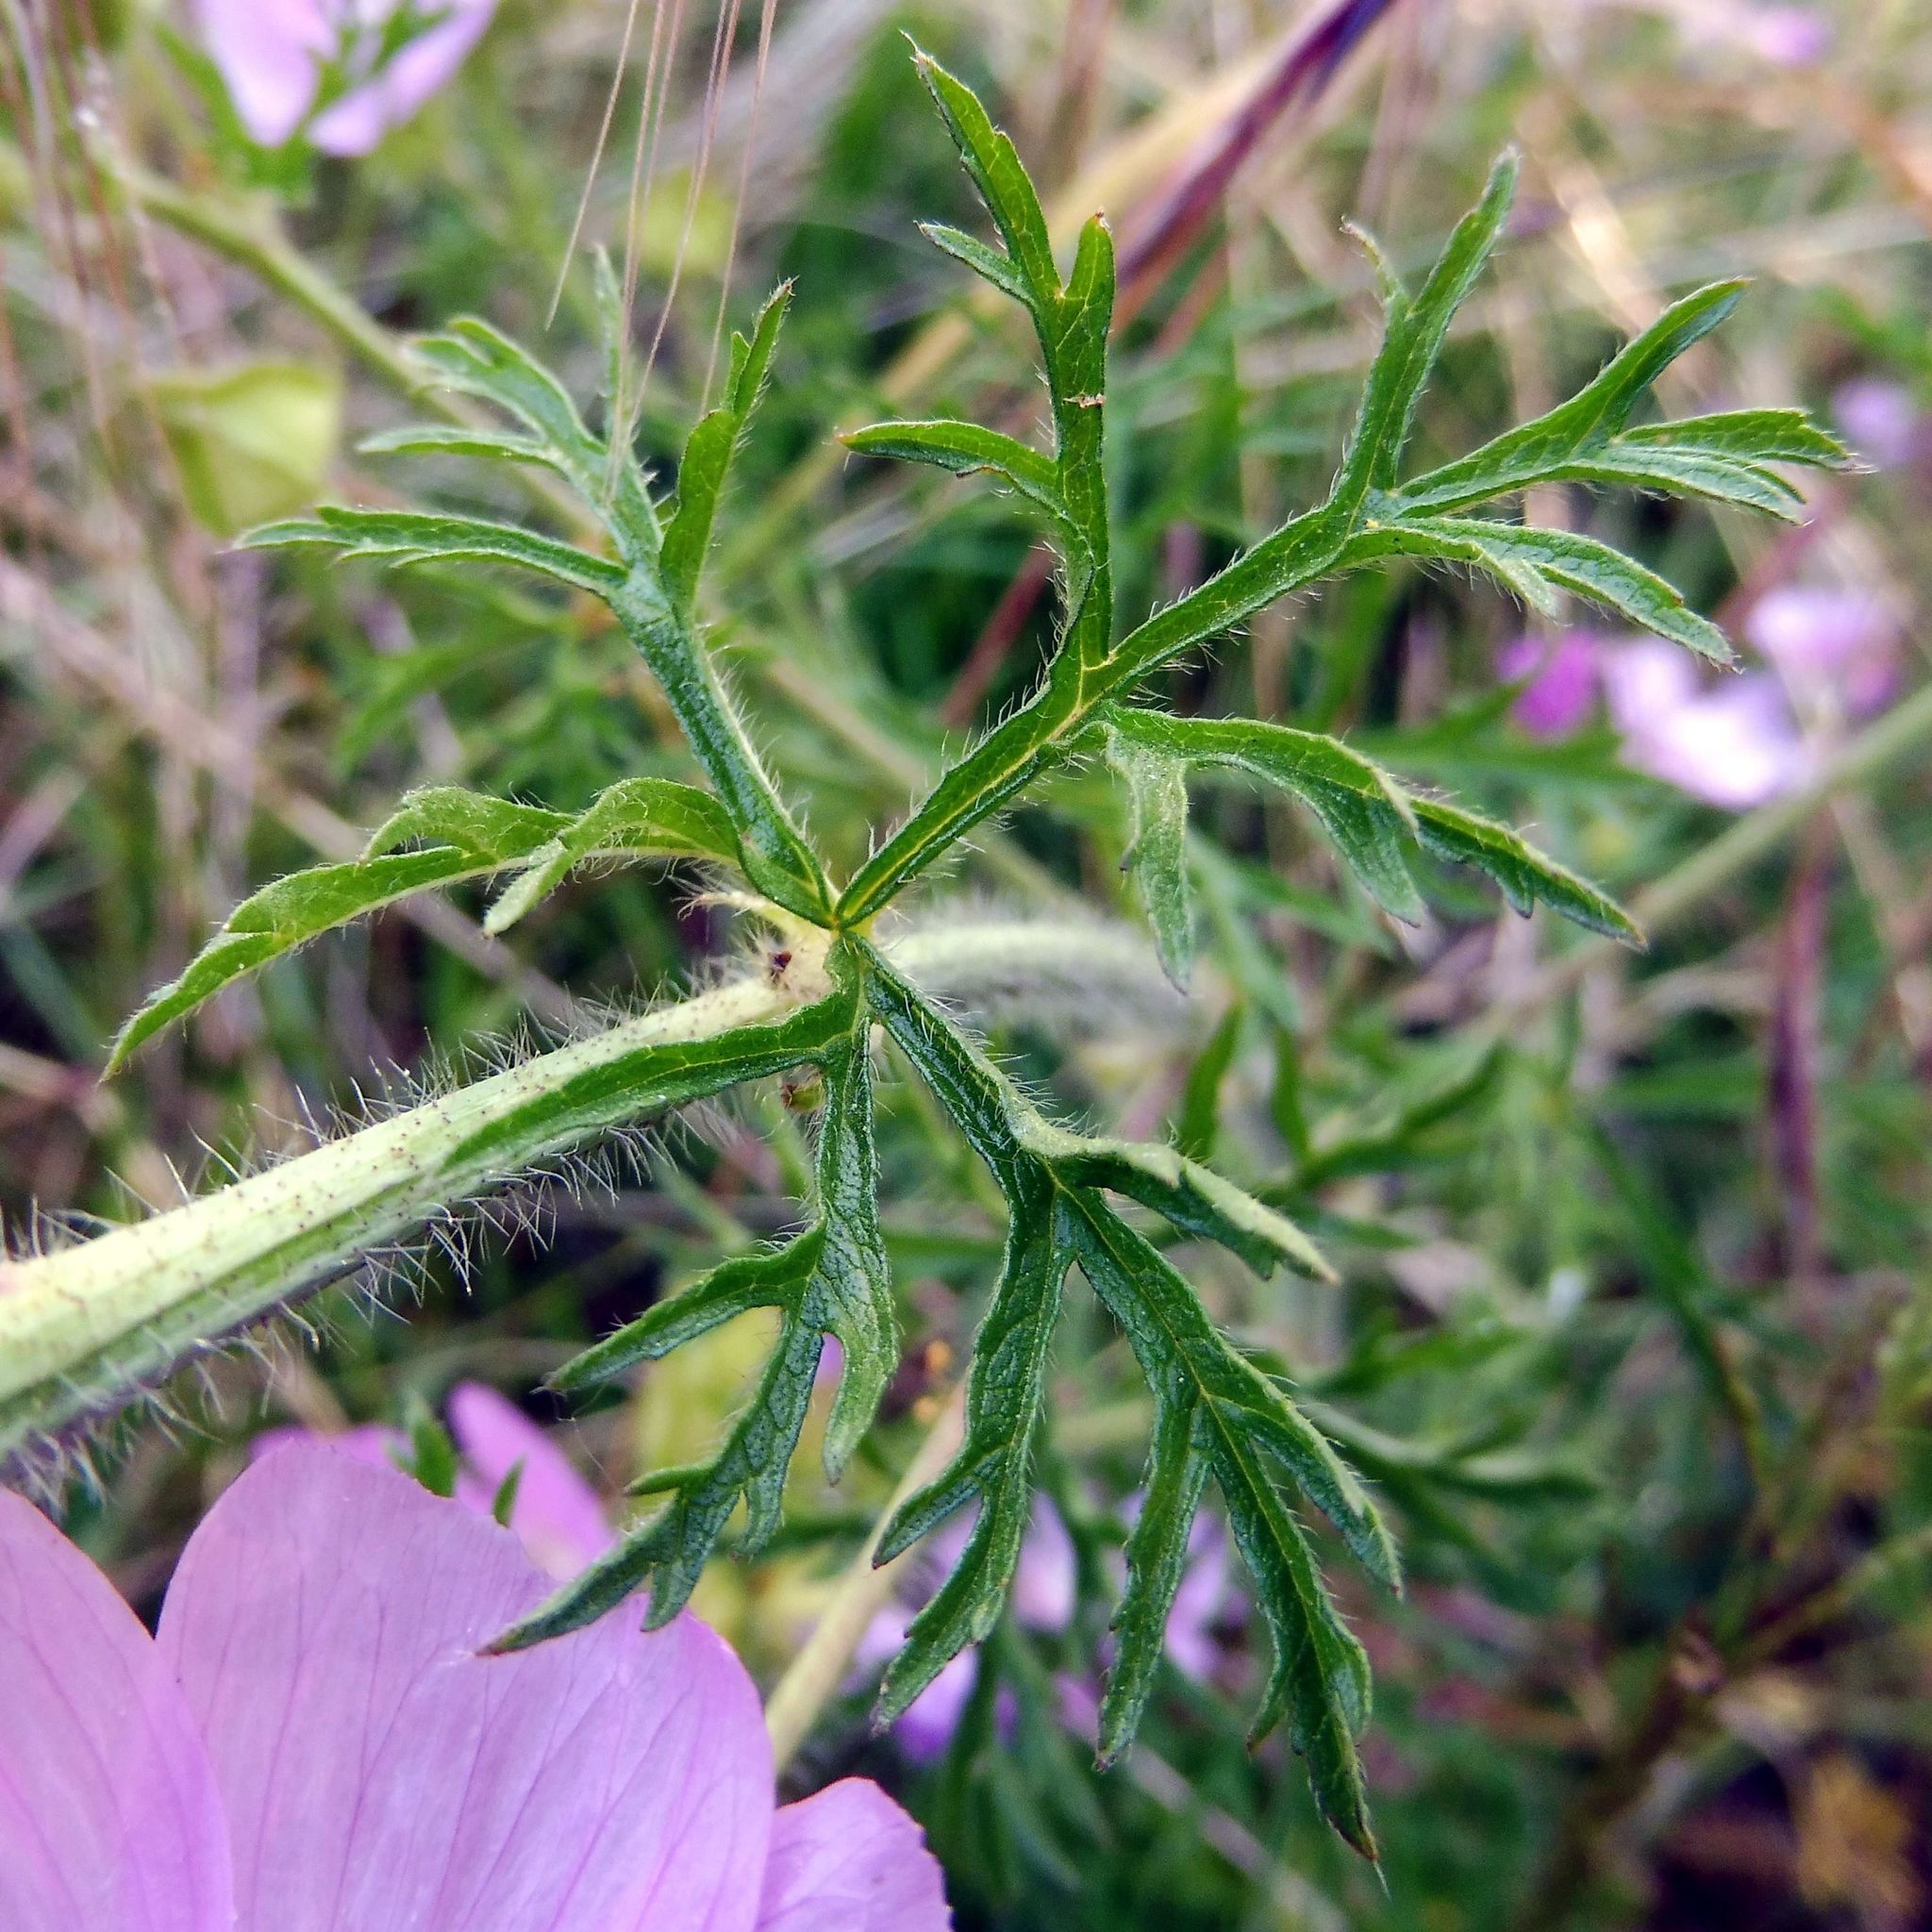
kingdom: Plantae
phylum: Tracheophyta
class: Magnoliopsida
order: Malvales
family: Malvaceae
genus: Malva
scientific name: Malva moschata
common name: Musk mallow
